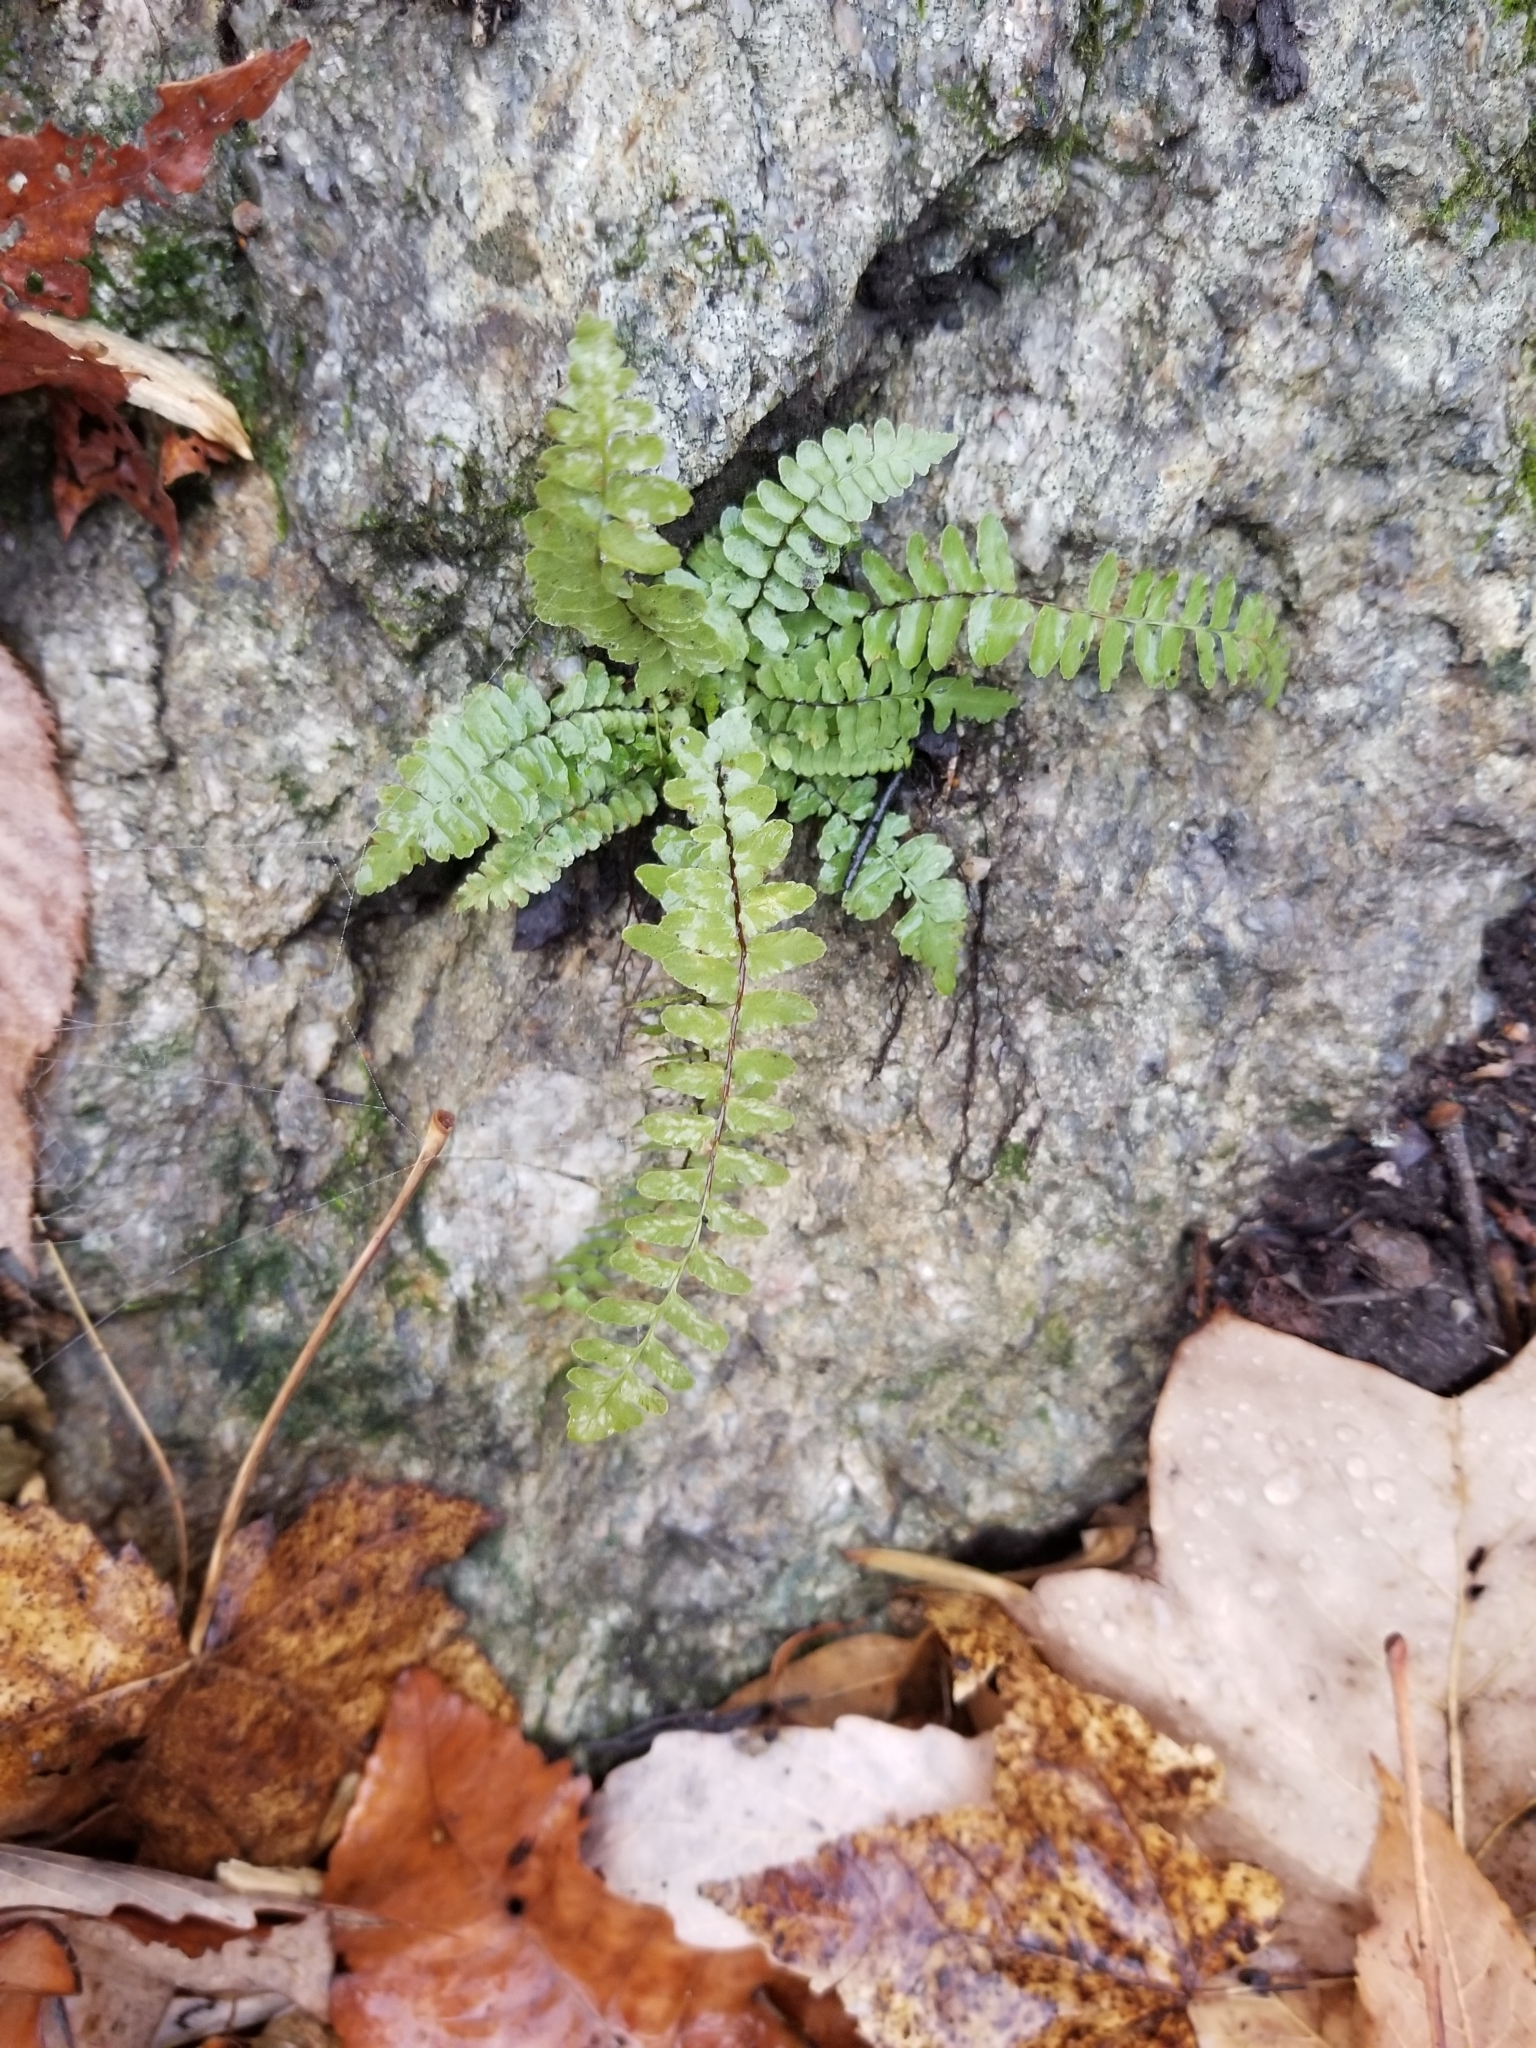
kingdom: Plantae
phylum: Tracheophyta
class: Polypodiopsida
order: Polypodiales
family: Aspleniaceae
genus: Asplenium
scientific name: Asplenium platyneuron
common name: Ebony spleenwort
